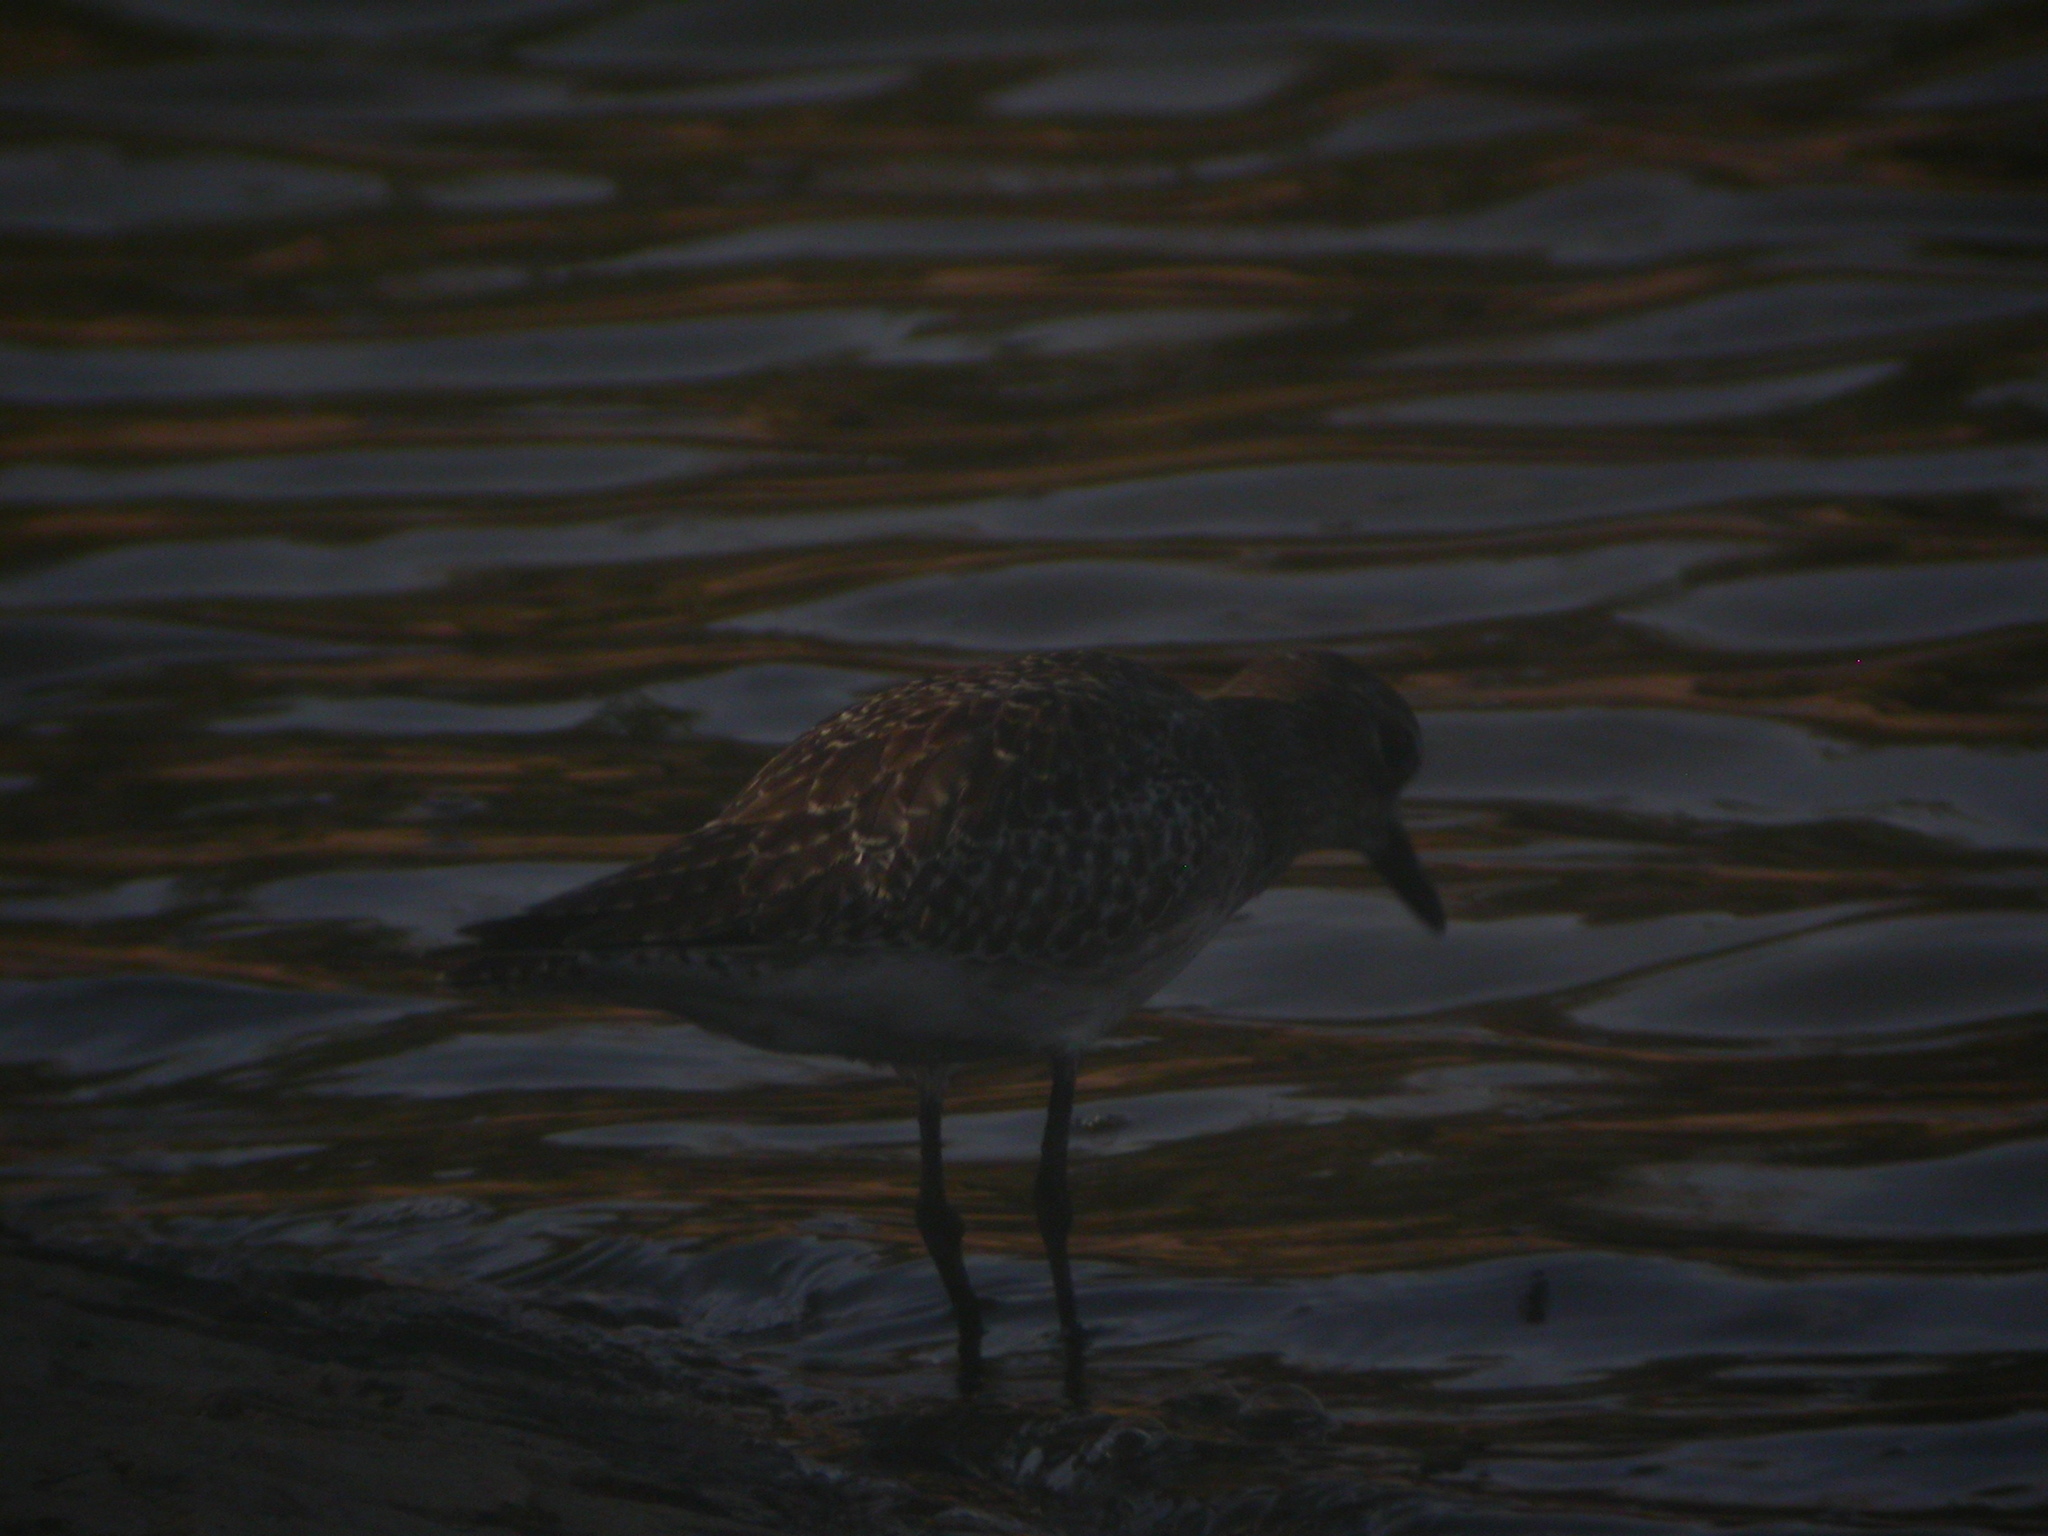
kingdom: Animalia
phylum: Chordata
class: Aves
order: Charadriiformes
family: Charadriidae
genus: Pluvialis
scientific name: Pluvialis squatarola
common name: Grey plover
